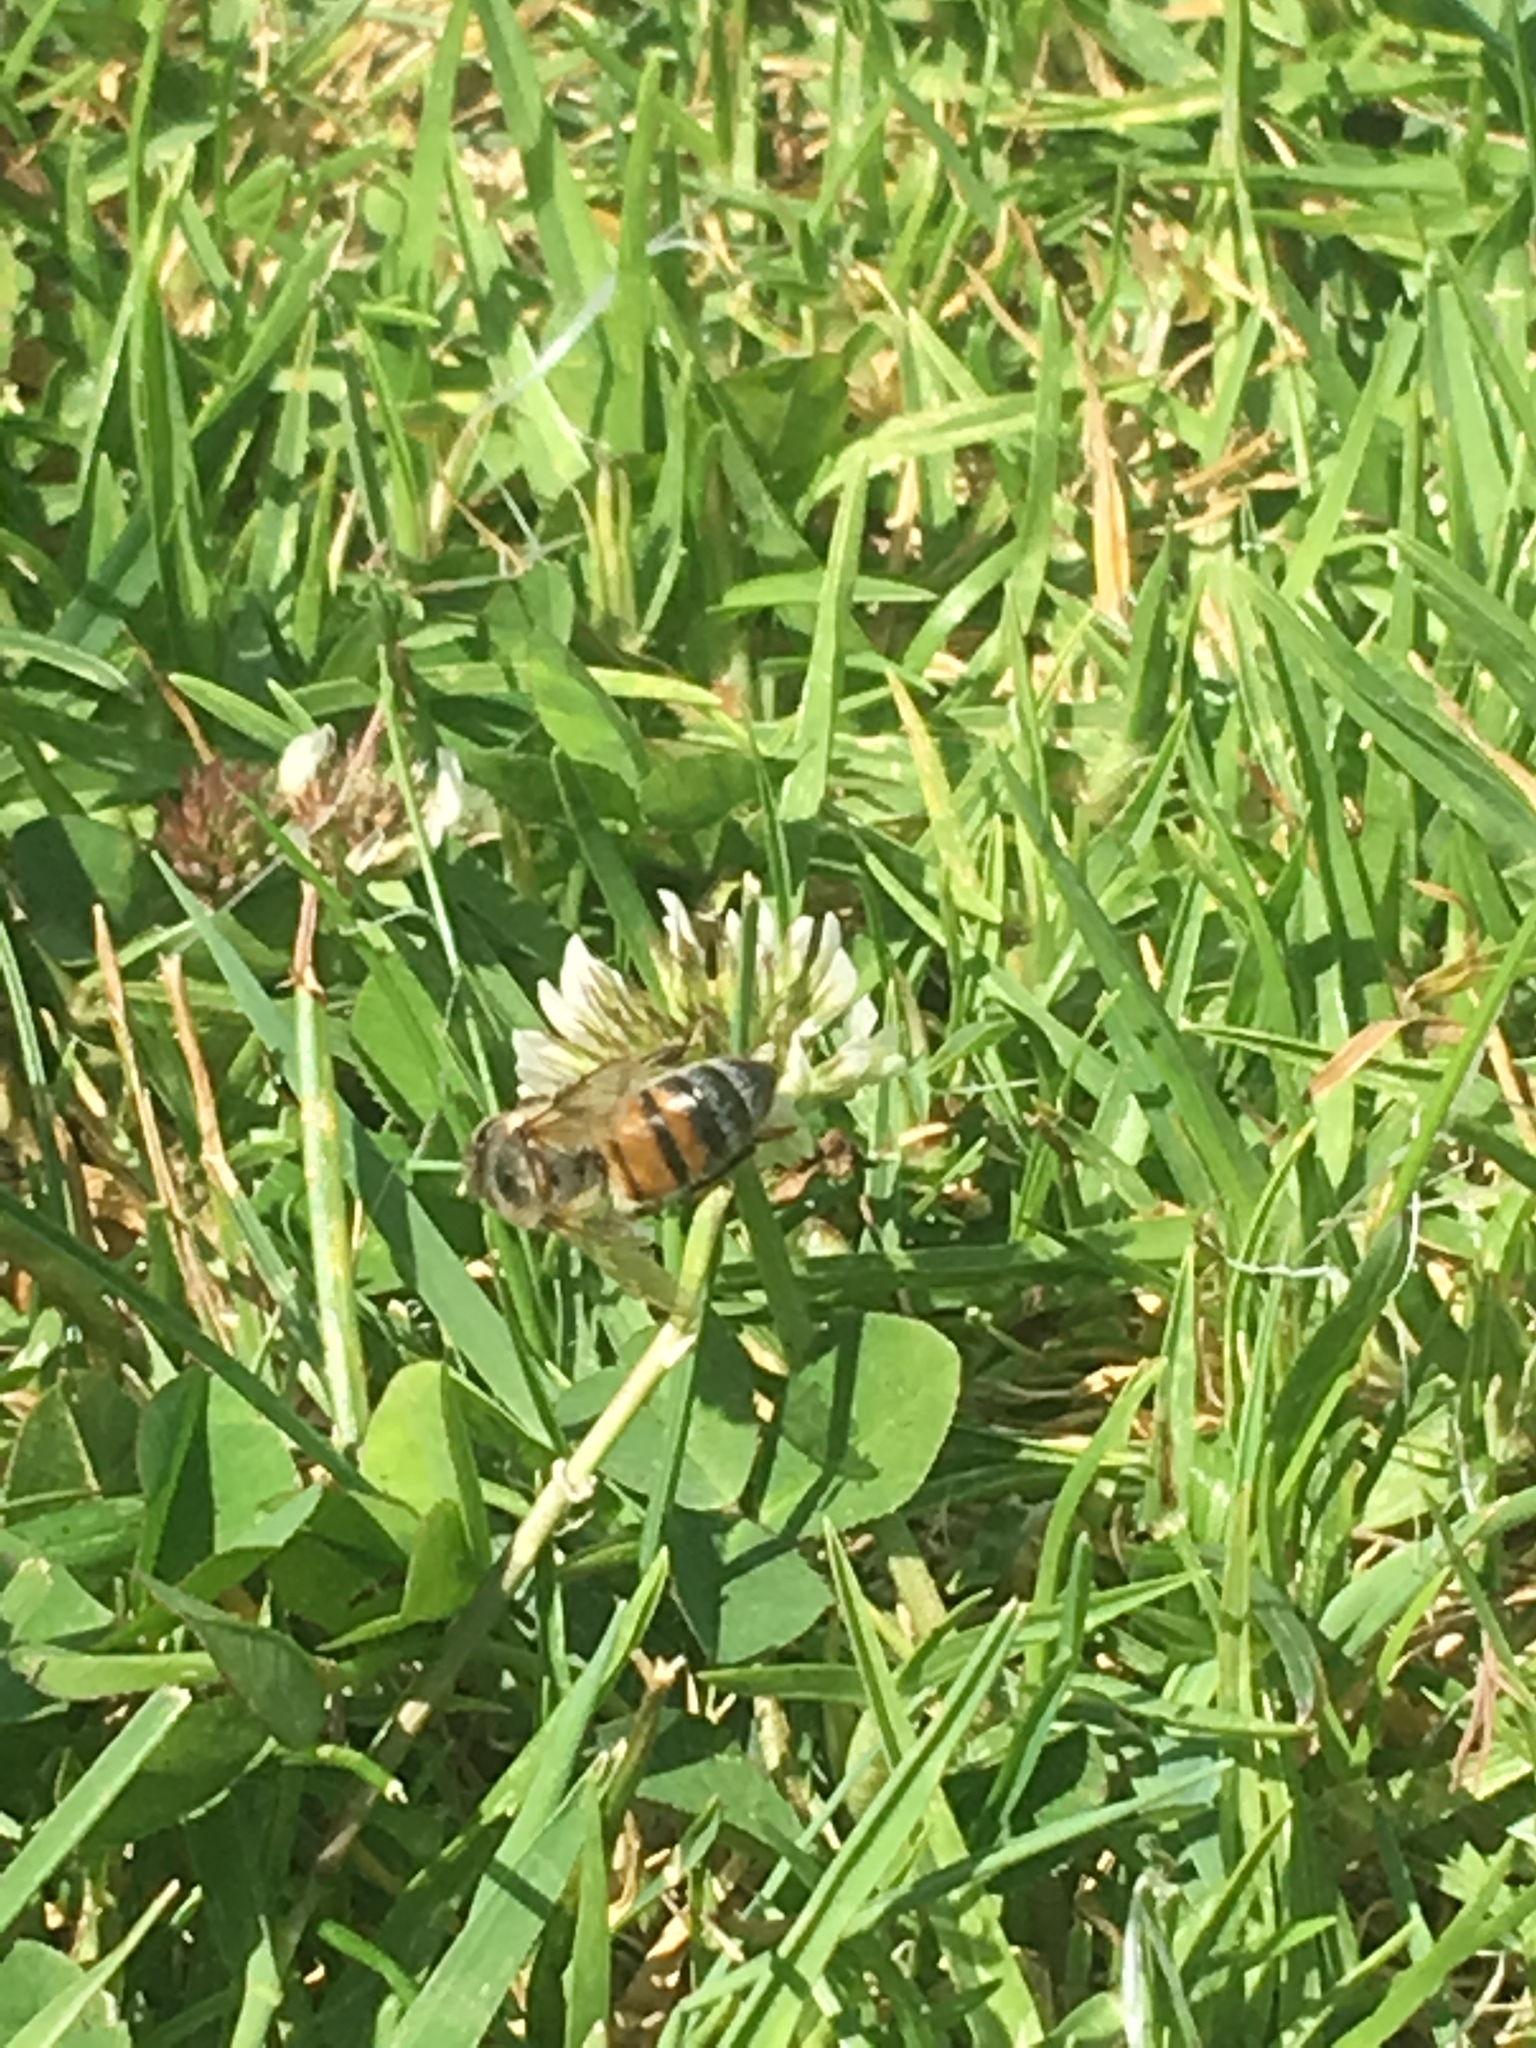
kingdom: Animalia
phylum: Arthropoda
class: Insecta
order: Hymenoptera
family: Apidae
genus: Apis
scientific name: Apis mellifera
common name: Honey bee
